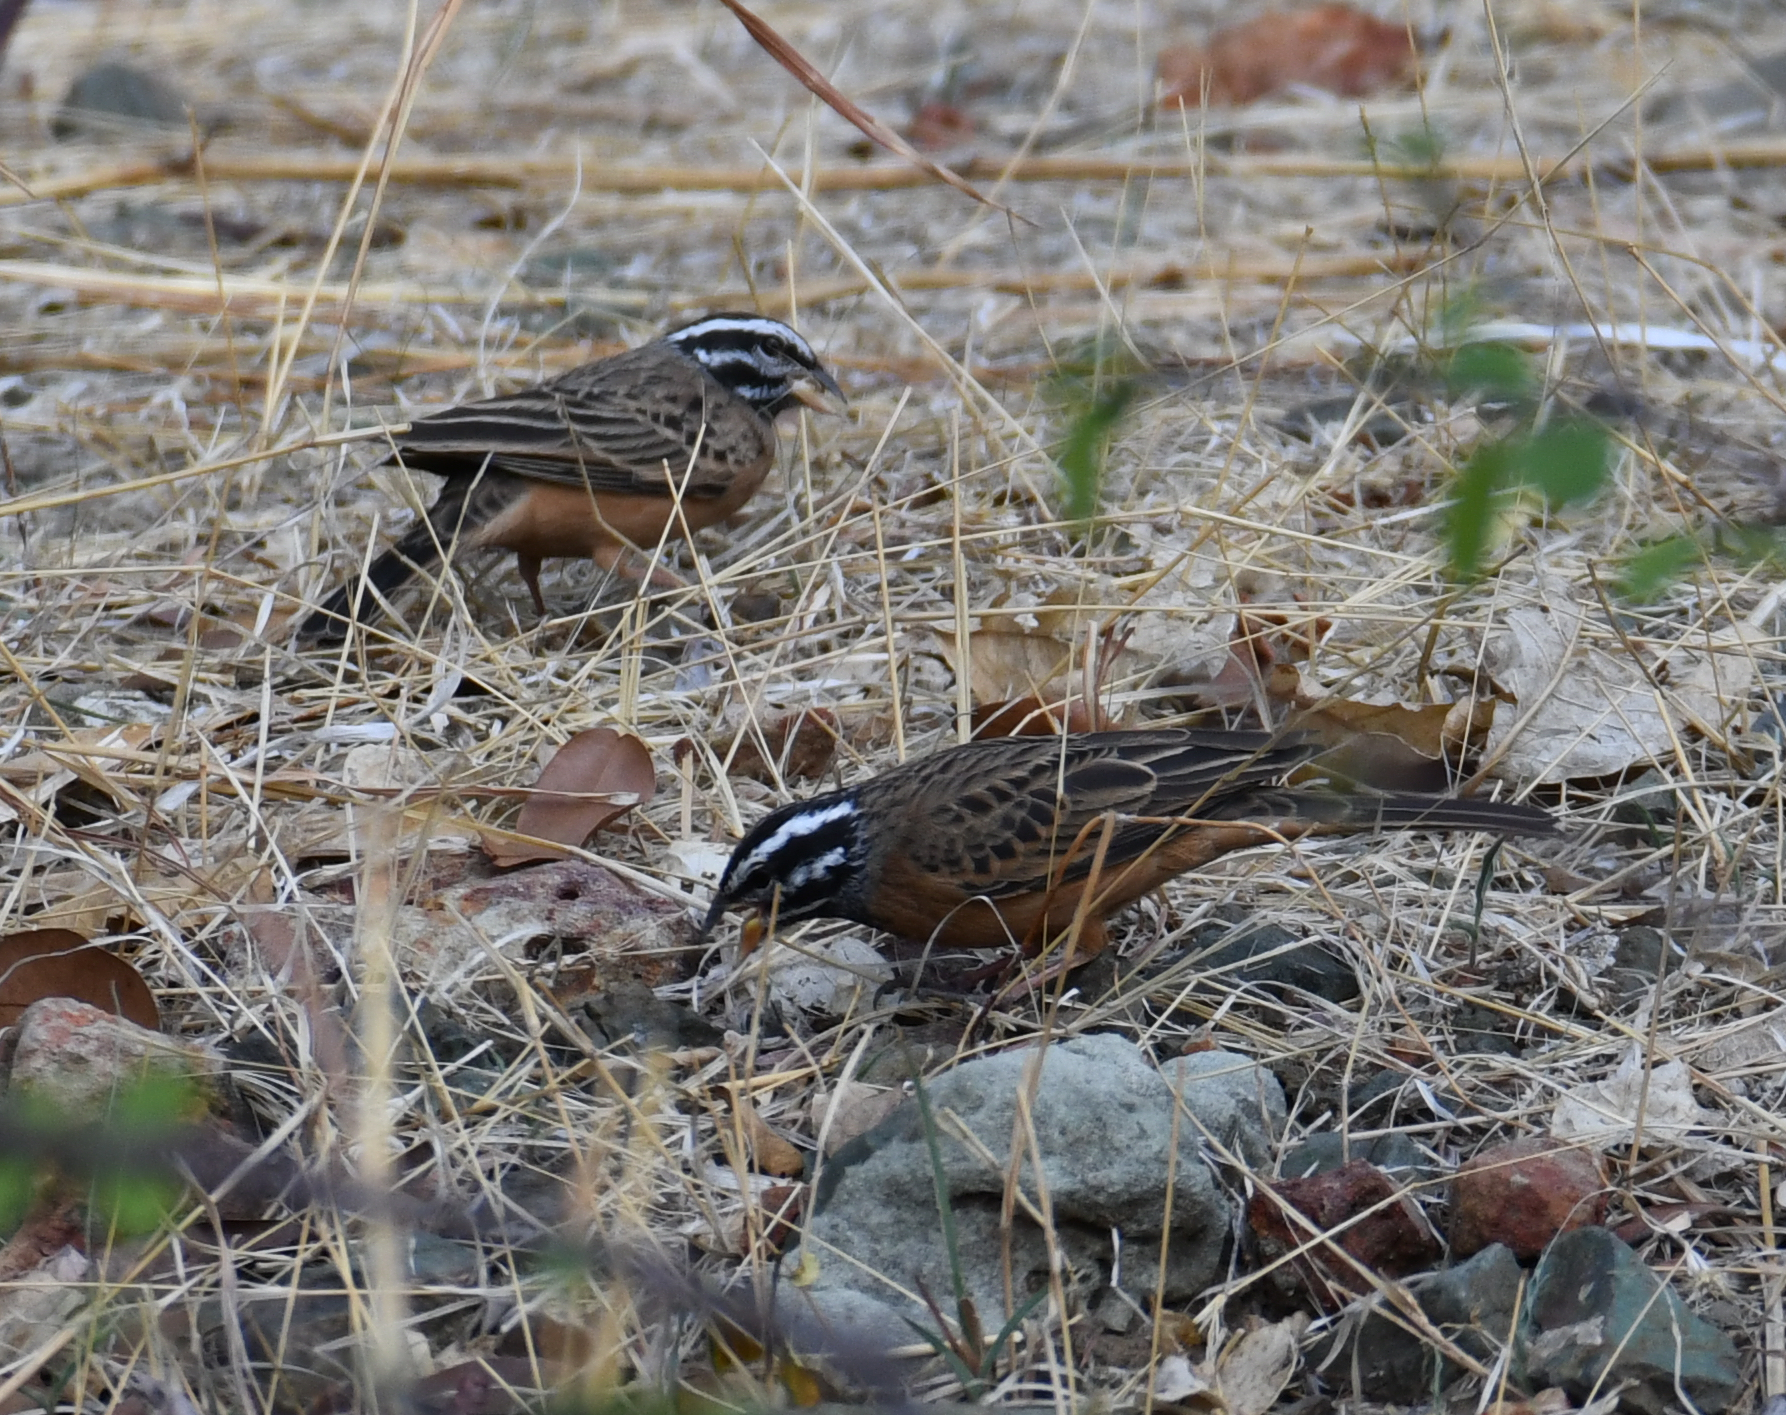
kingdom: Animalia
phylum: Chordata
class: Aves
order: Passeriformes
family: Emberizidae
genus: Emberiza
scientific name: Emberiza tahapisi
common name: Cinnamon-breasted bunting
